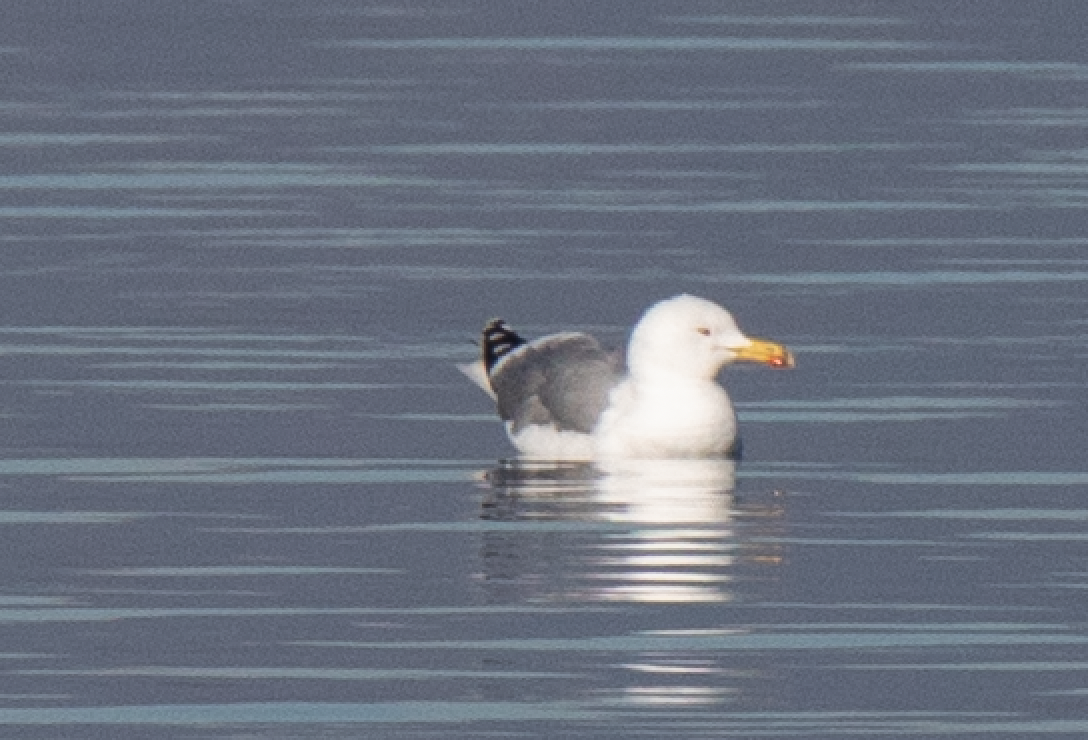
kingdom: Animalia
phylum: Chordata
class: Aves
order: Charadriiformes
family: Laridae
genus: Larus
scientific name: Larus michahellis
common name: Yellow-legged gull
